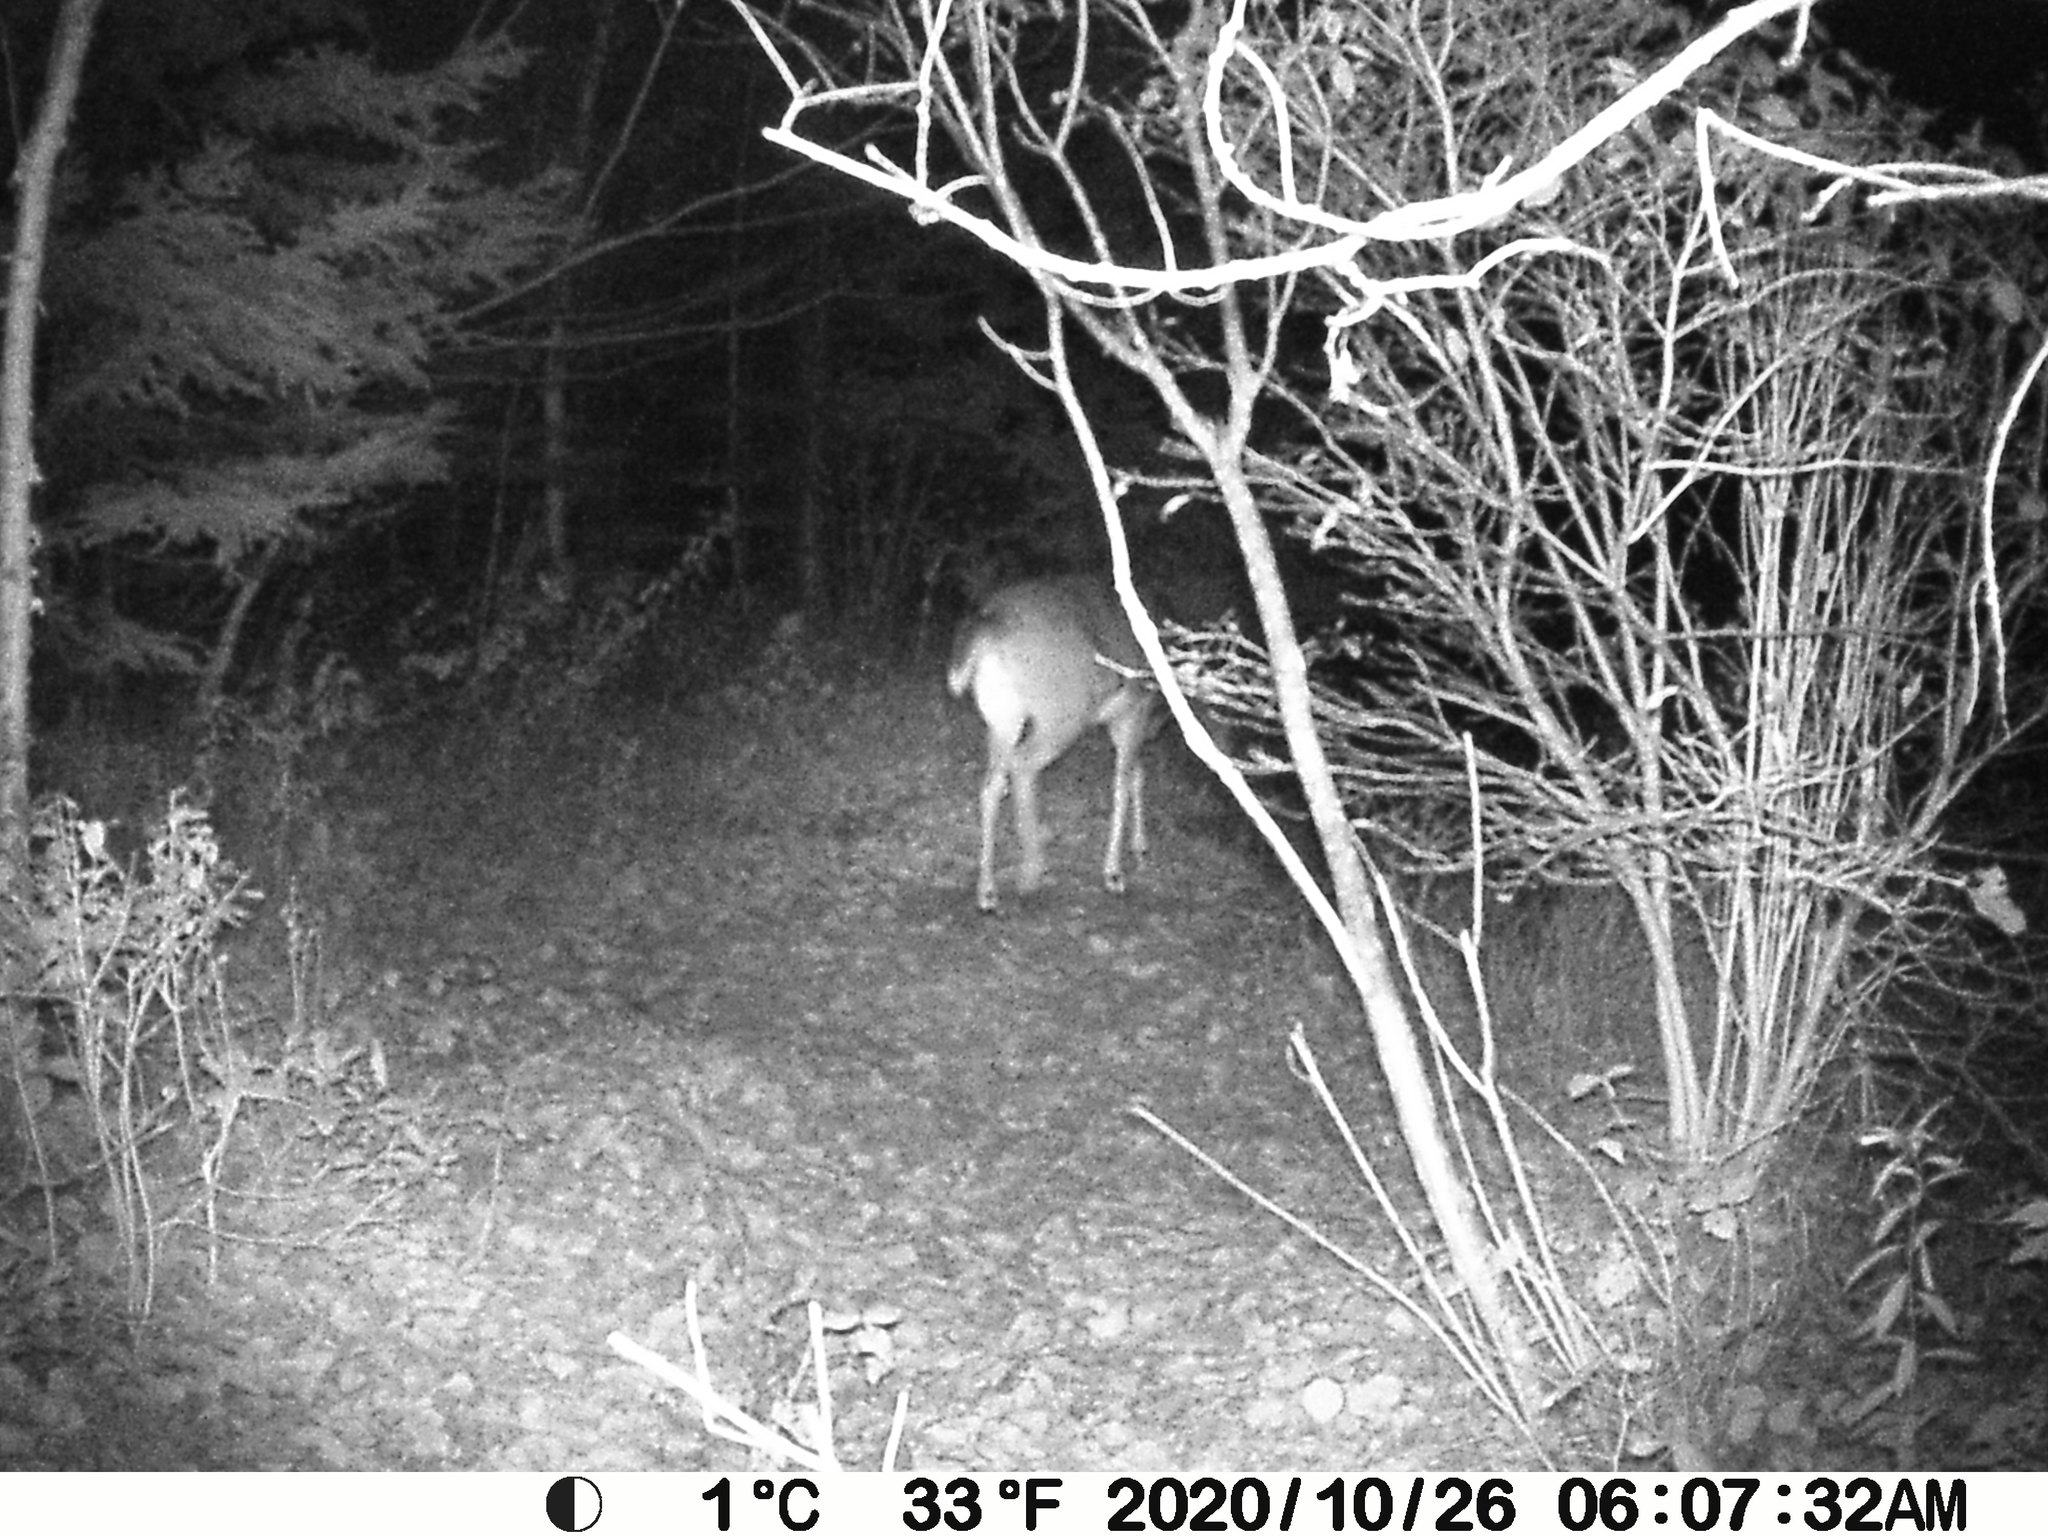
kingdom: Animalia
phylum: Chordata
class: Mammalia
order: Artiodactyla
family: Cervidae
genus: Odocoileus
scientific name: Odocoileus virginianus
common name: White-tailed deer
